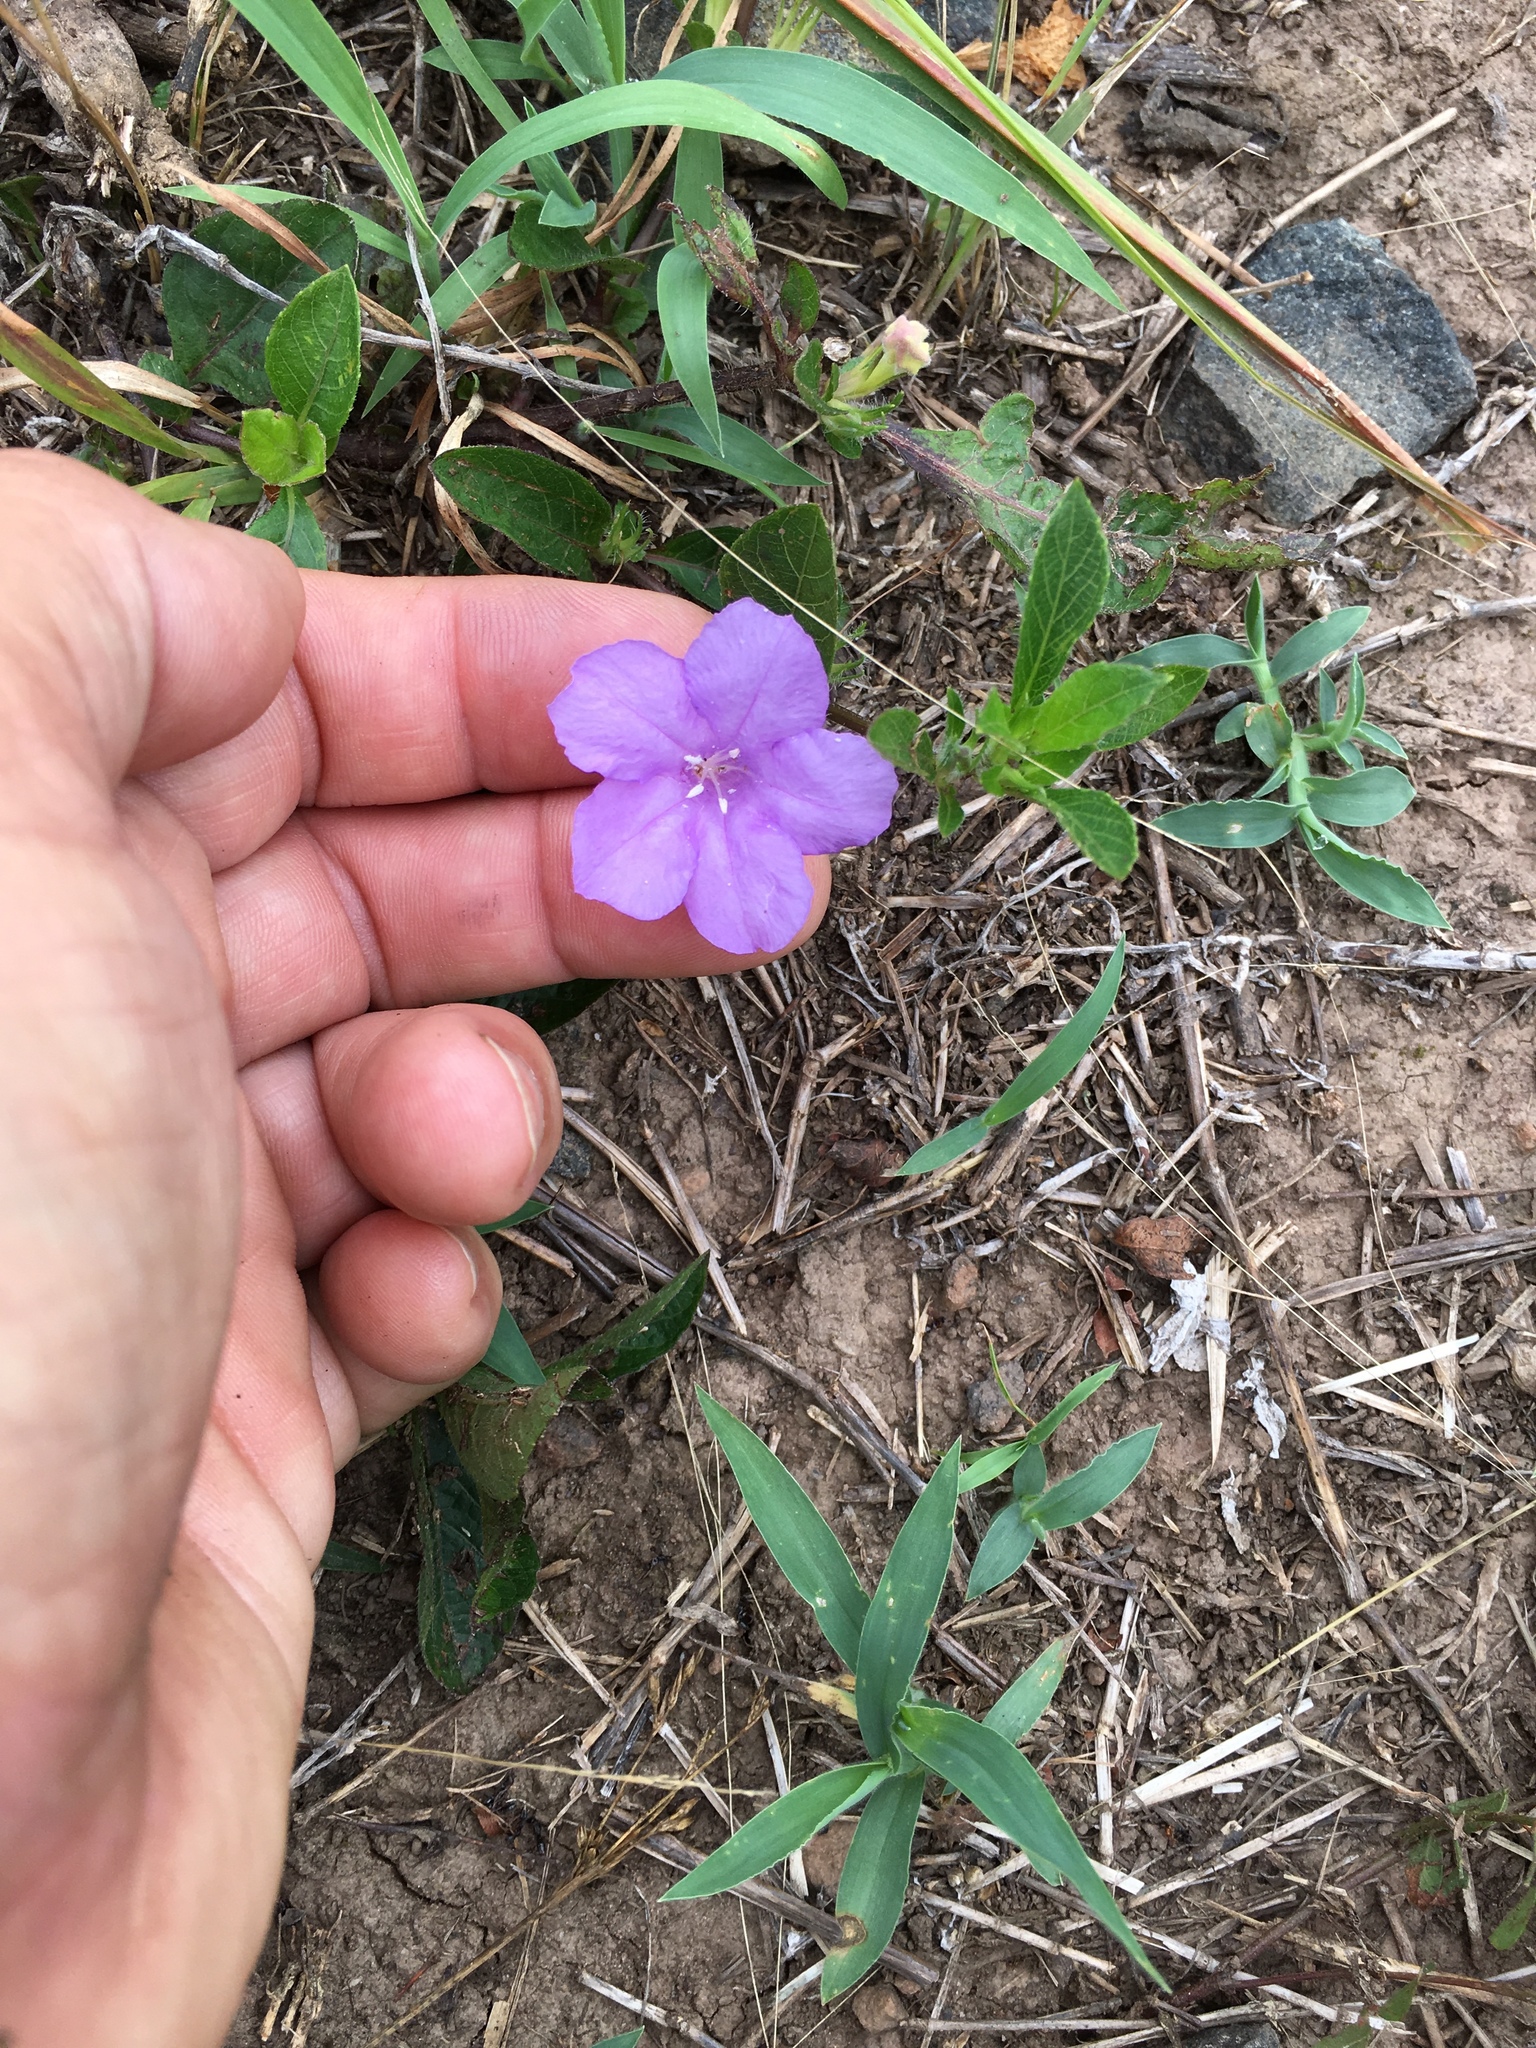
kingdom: Plantae
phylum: Tracheophyta
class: Magnoliopsida
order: Lamiales
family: Acanthaceae
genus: Ruellia
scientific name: Ruellia caroliniensis
